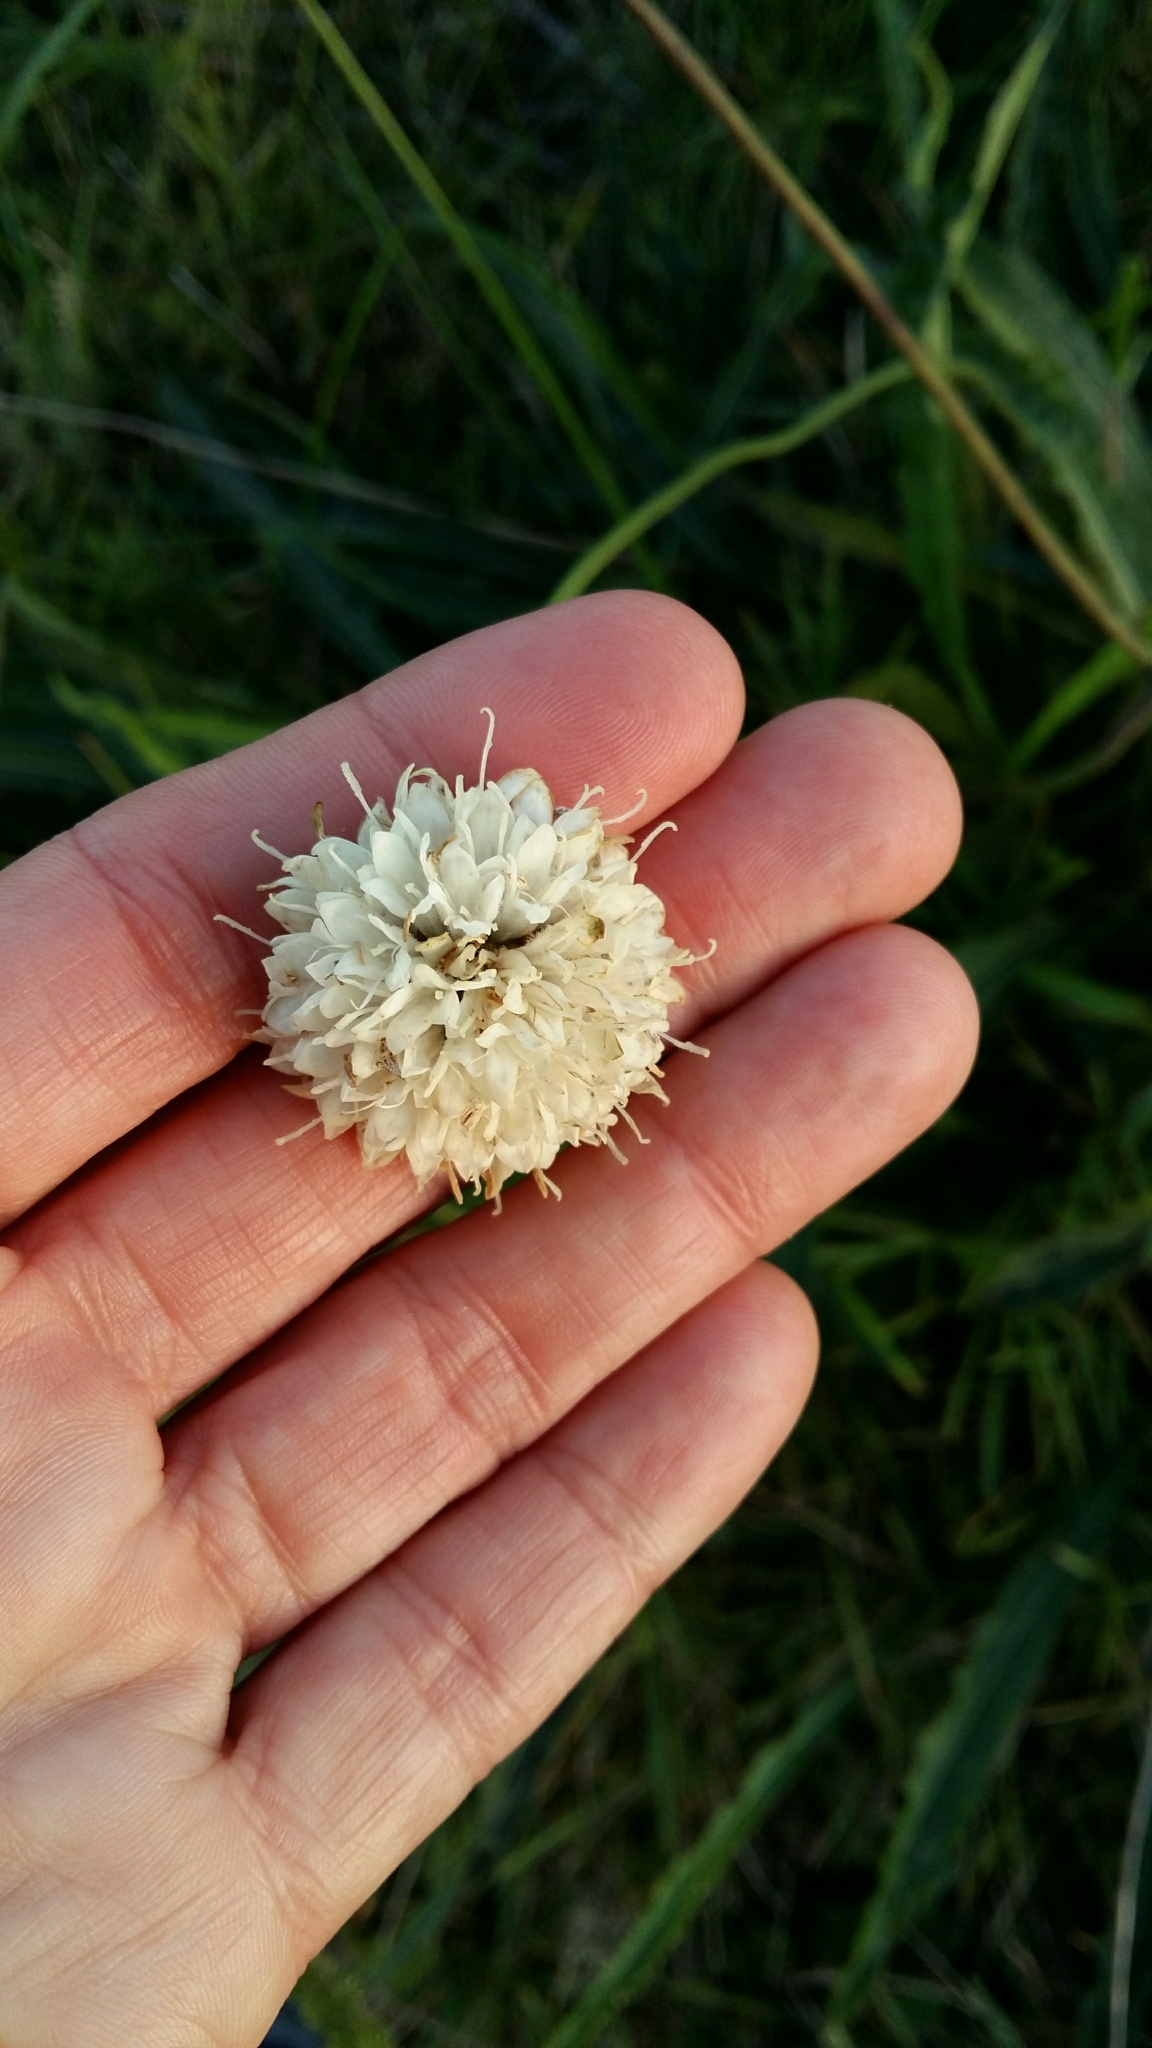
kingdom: Plantae
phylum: Tracheophyta
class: Magnoliopsida
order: Dipsacales
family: Caprifoliaceae
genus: Cephalaria
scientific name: Cephalaria humilis
